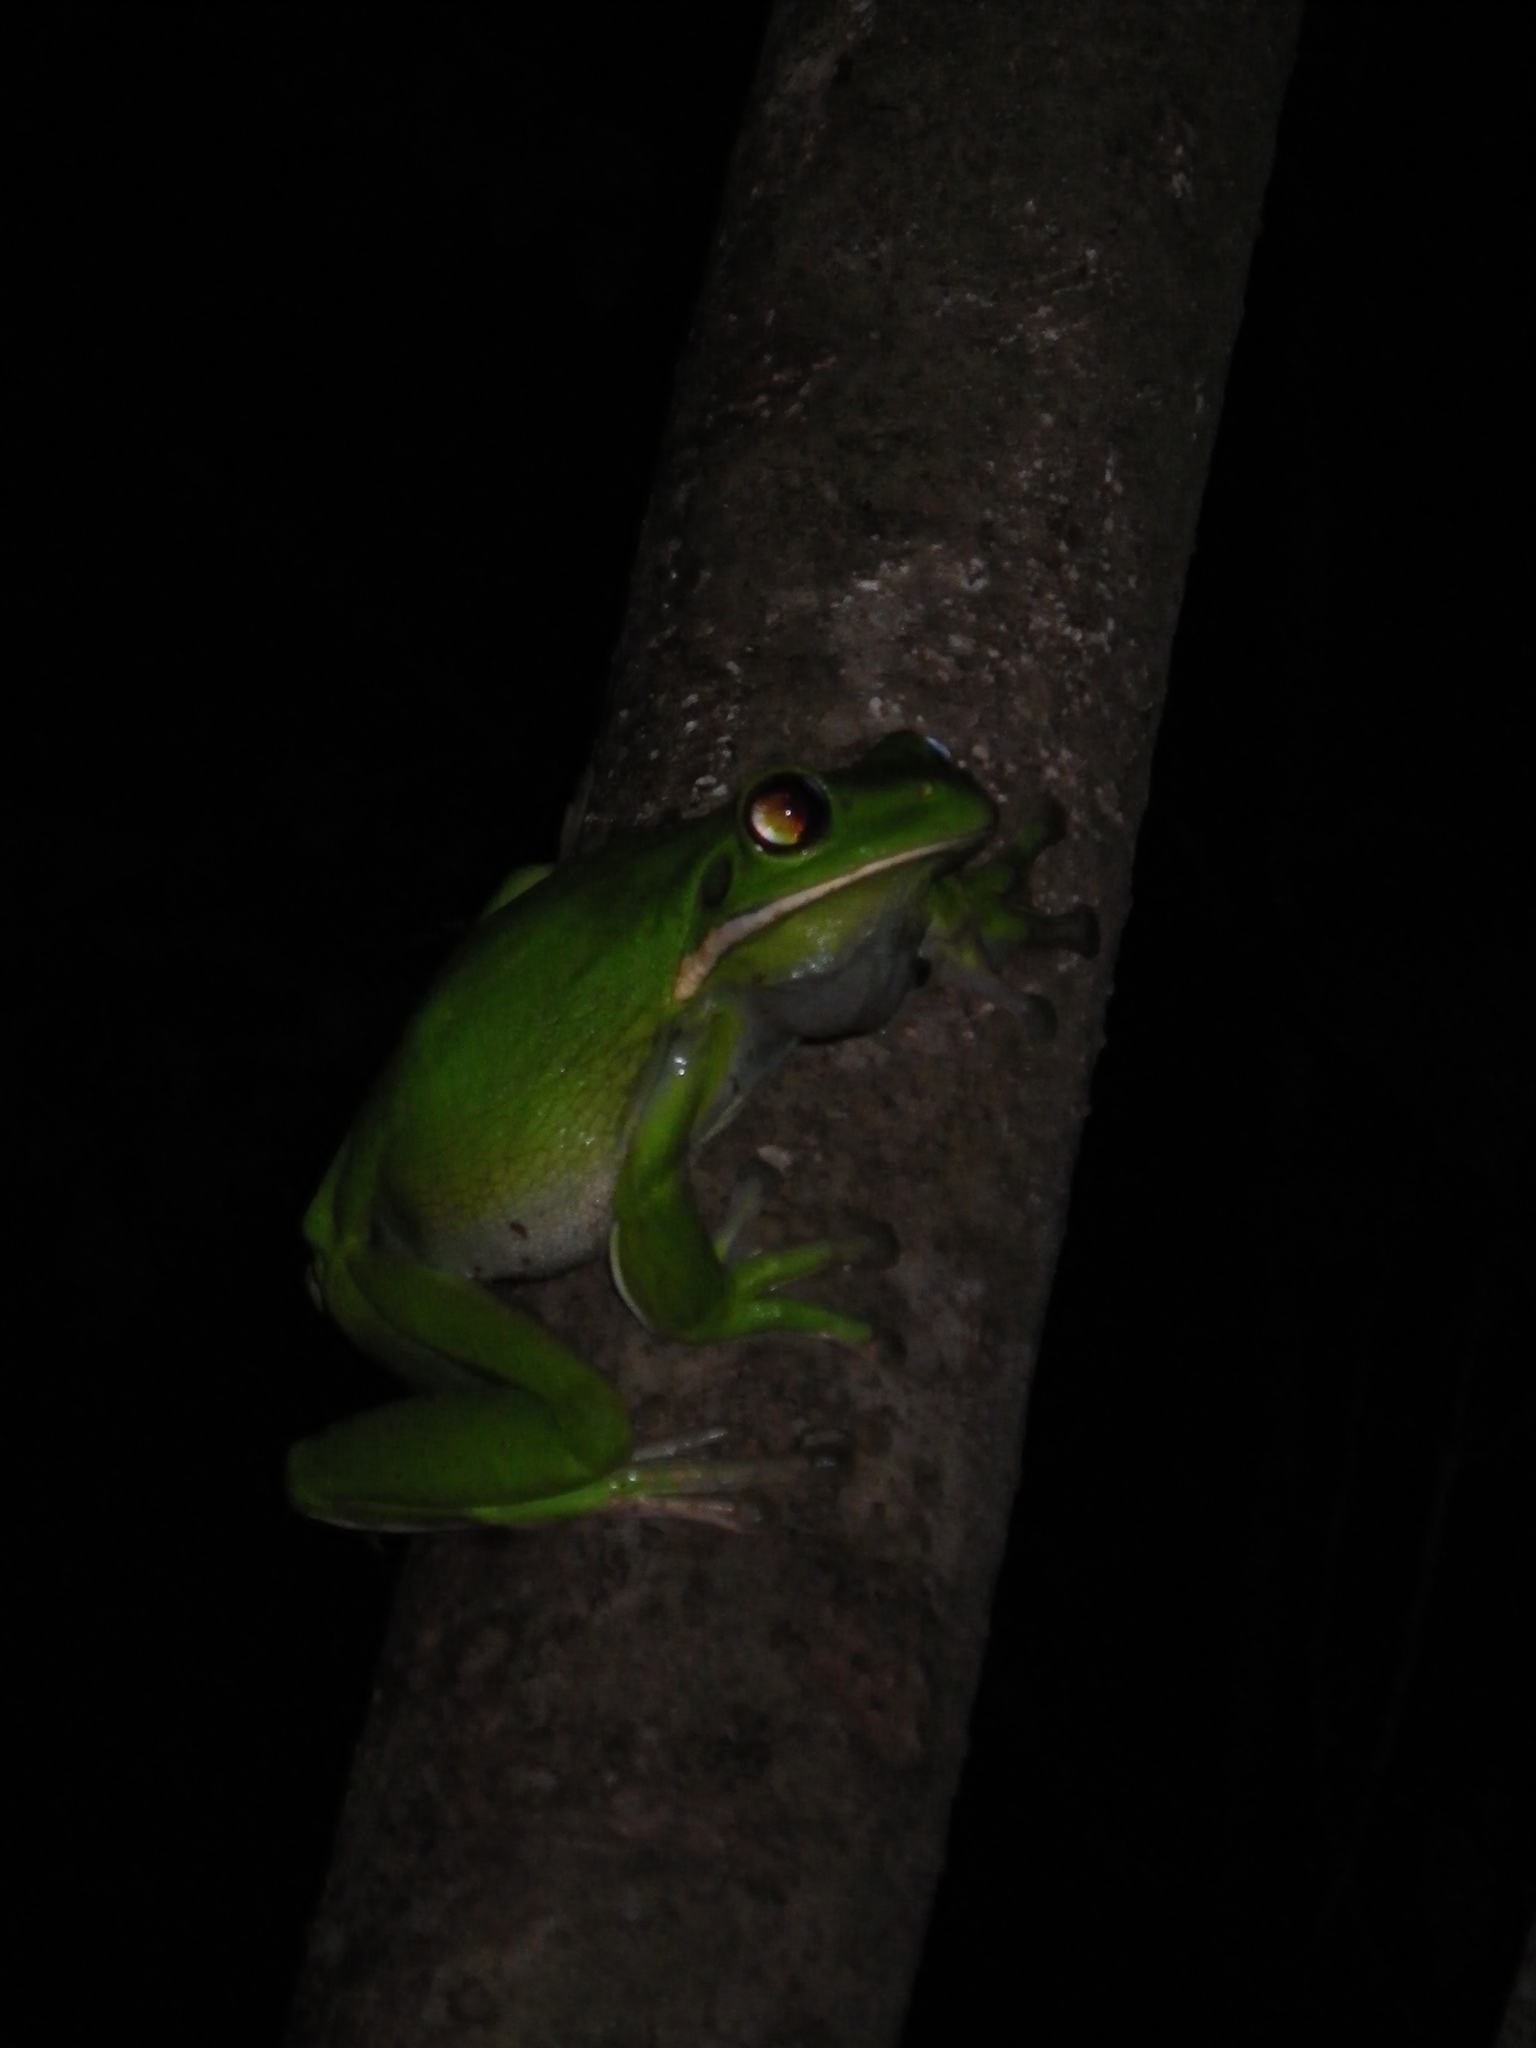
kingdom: Animalia
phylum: Chordata
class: Amphibia
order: Anura
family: Pelodryadidae
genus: Nyctimystes
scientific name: Nyctimystes infrafrenatus
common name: Australian giant treefrog
